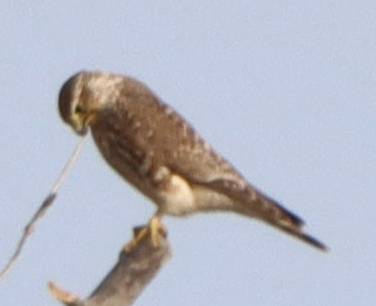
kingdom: Animalia
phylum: Chordata
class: Aves
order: Falconiformes
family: Falconidae
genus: Falco
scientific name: Falco columbarius
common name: Merlin
